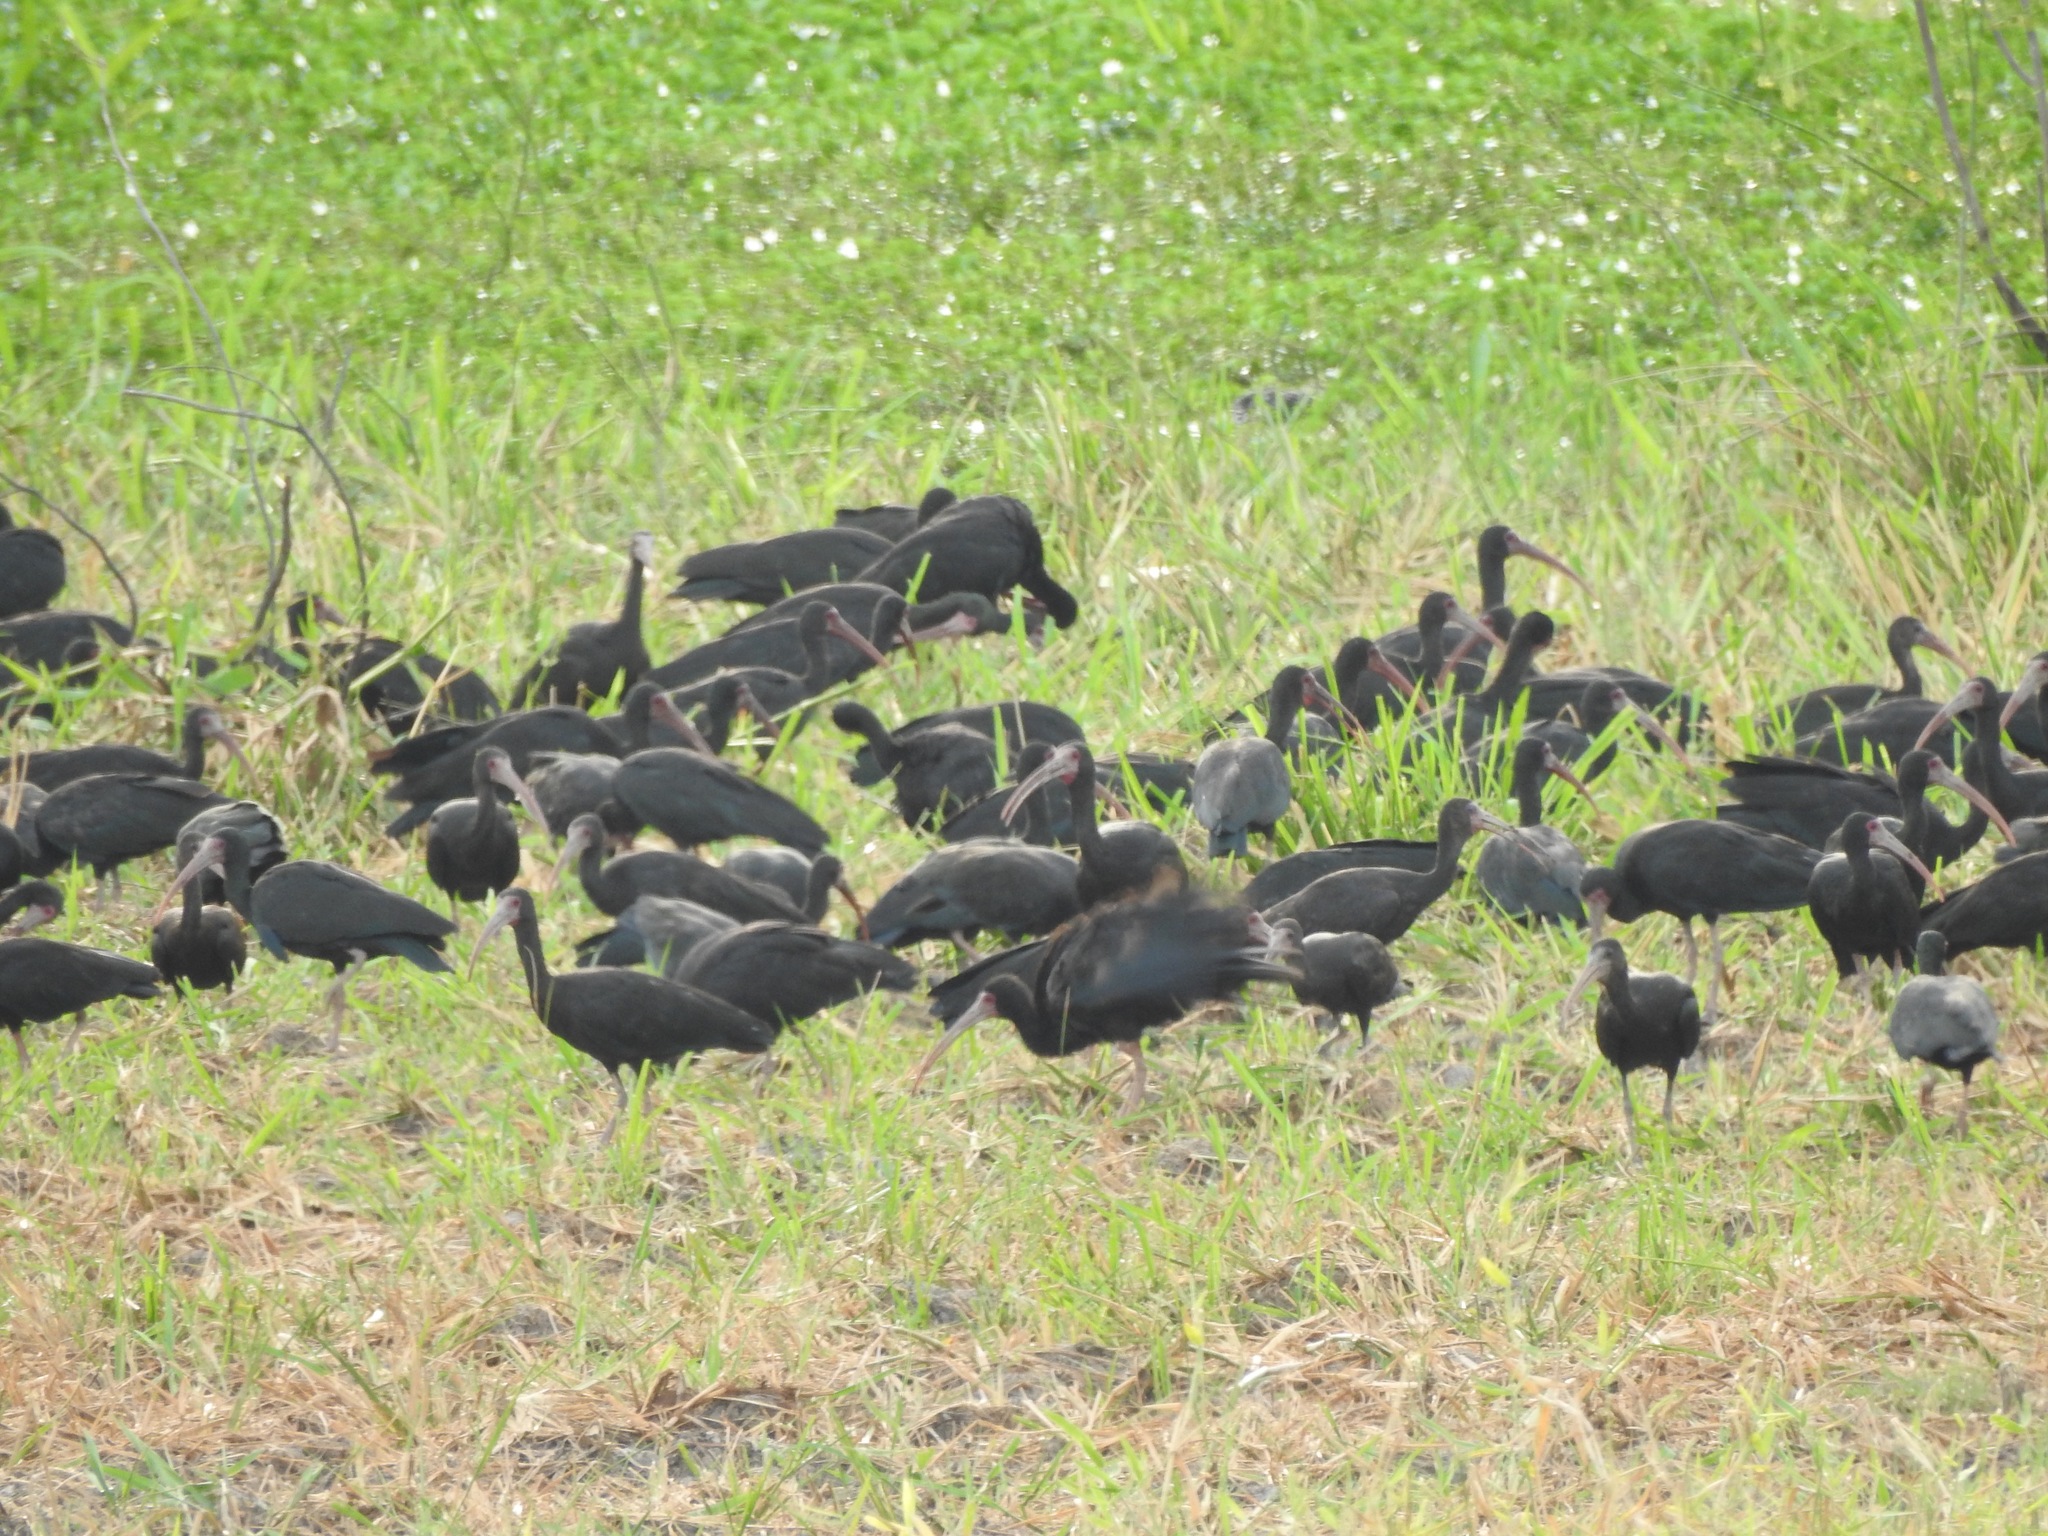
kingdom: Animalia
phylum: Chordata
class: Aves
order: Pelecaniformes
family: Threskiornithidae
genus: Phimosus
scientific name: Phimosus infuscatus
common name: Bare-faced ibis
